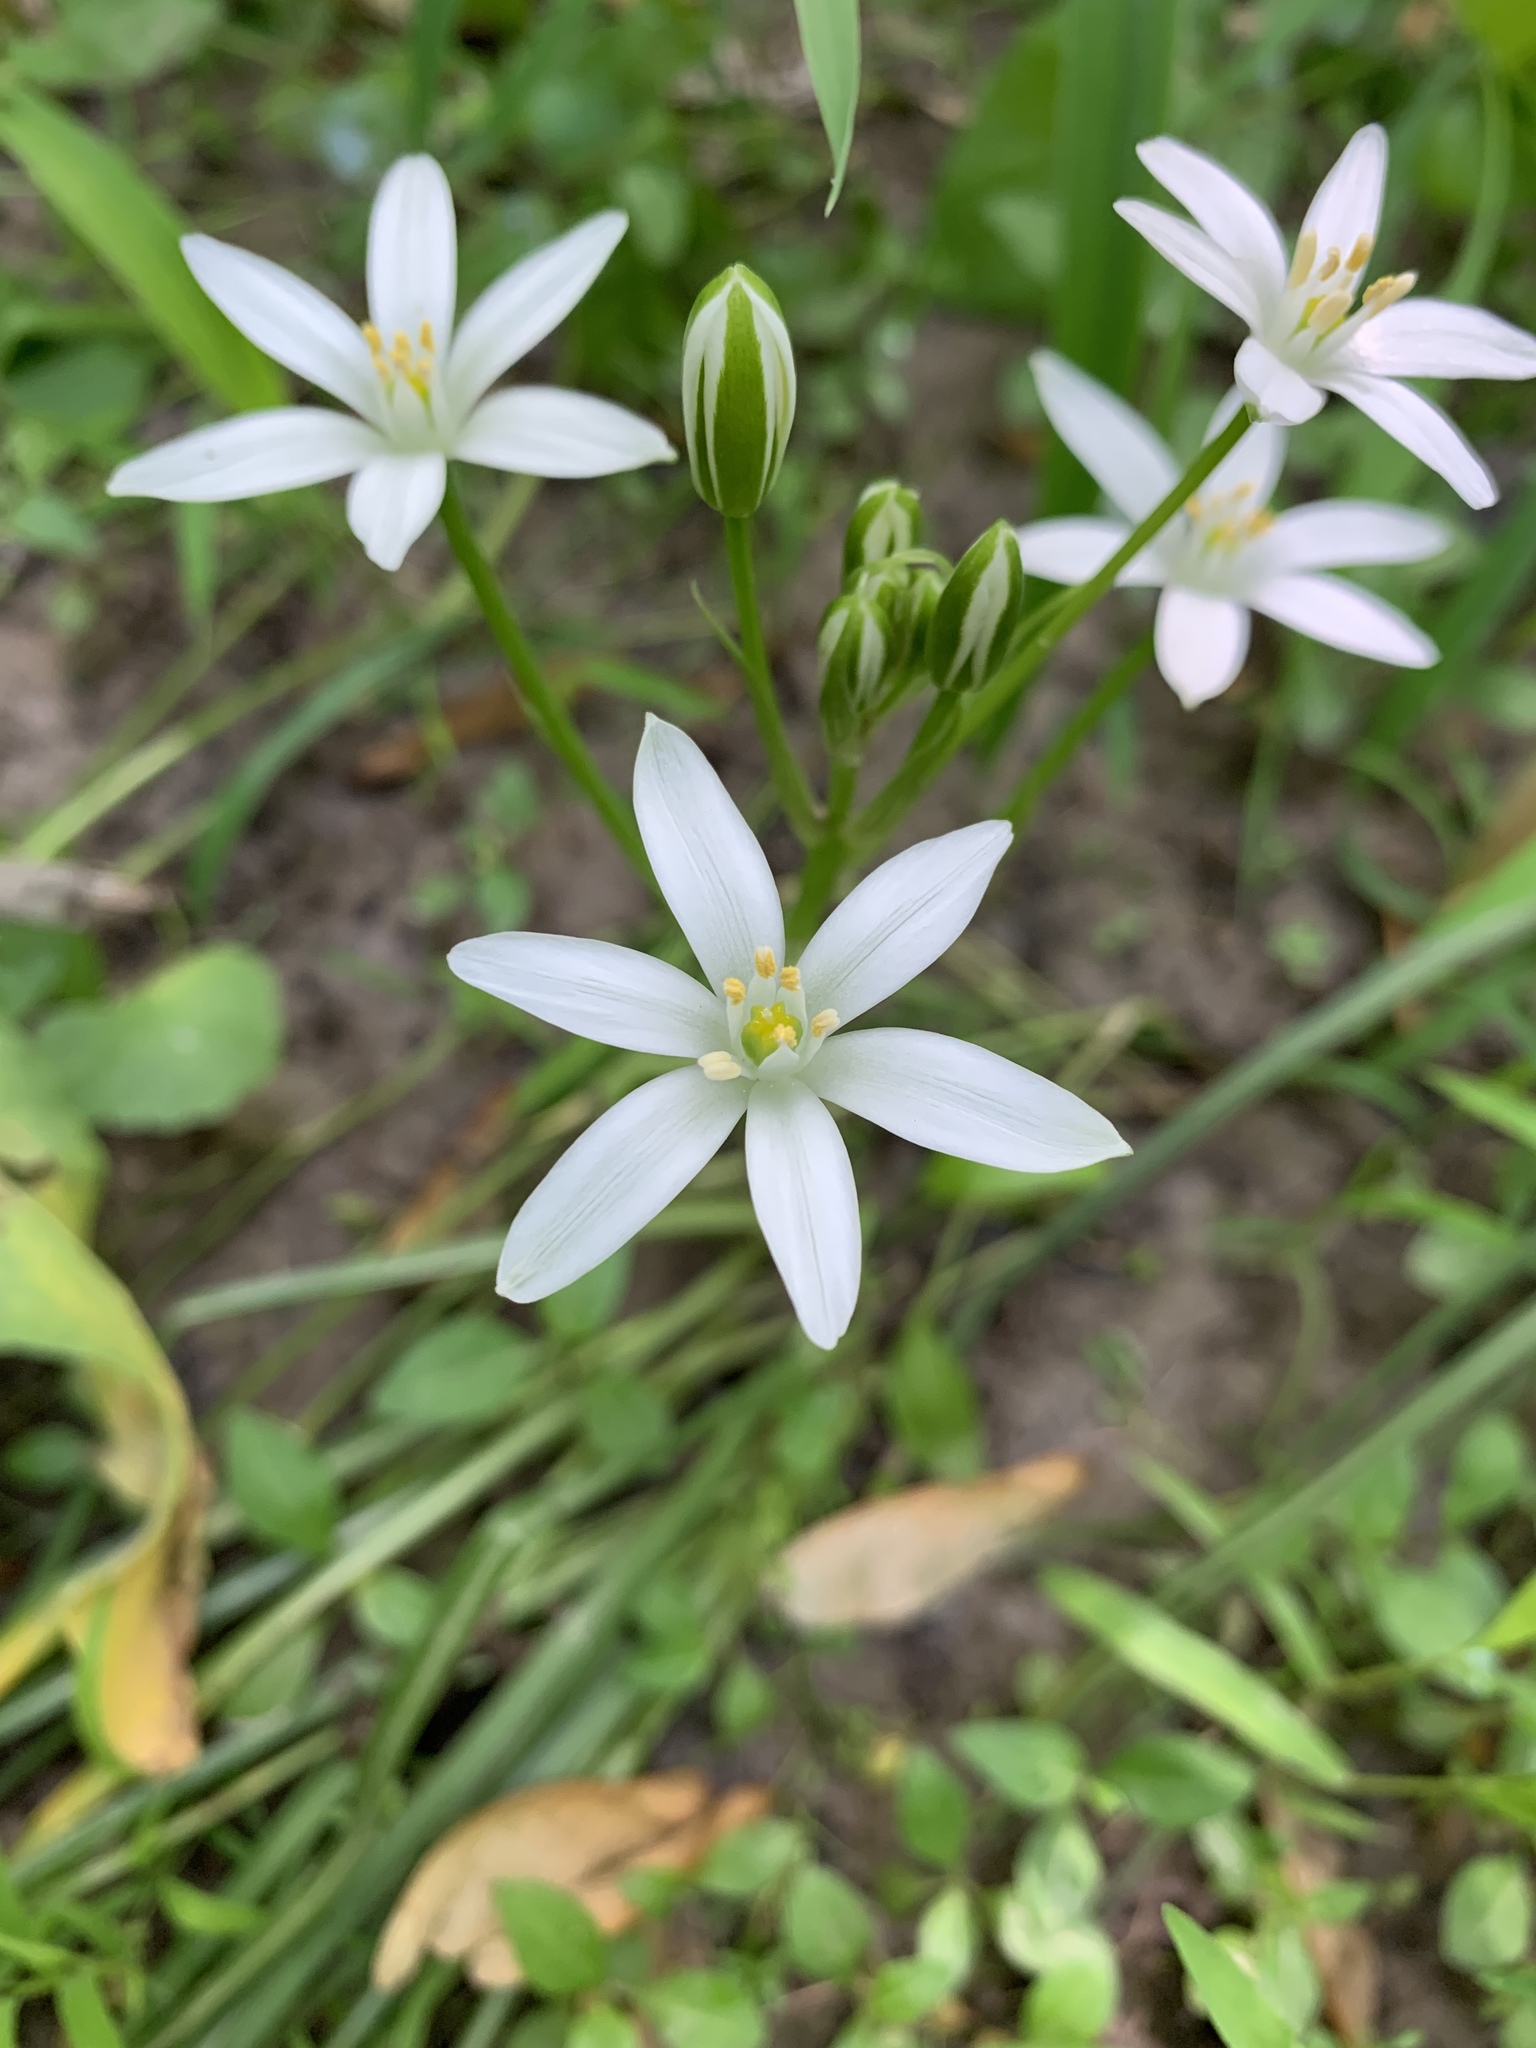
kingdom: Plantae
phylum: Tracheophyta
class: Liliopsida
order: Asparagales
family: Asparagaceae
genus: Ornithogalum
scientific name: Ornithogalum umbellatum
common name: Garden star-of-bethlehem
